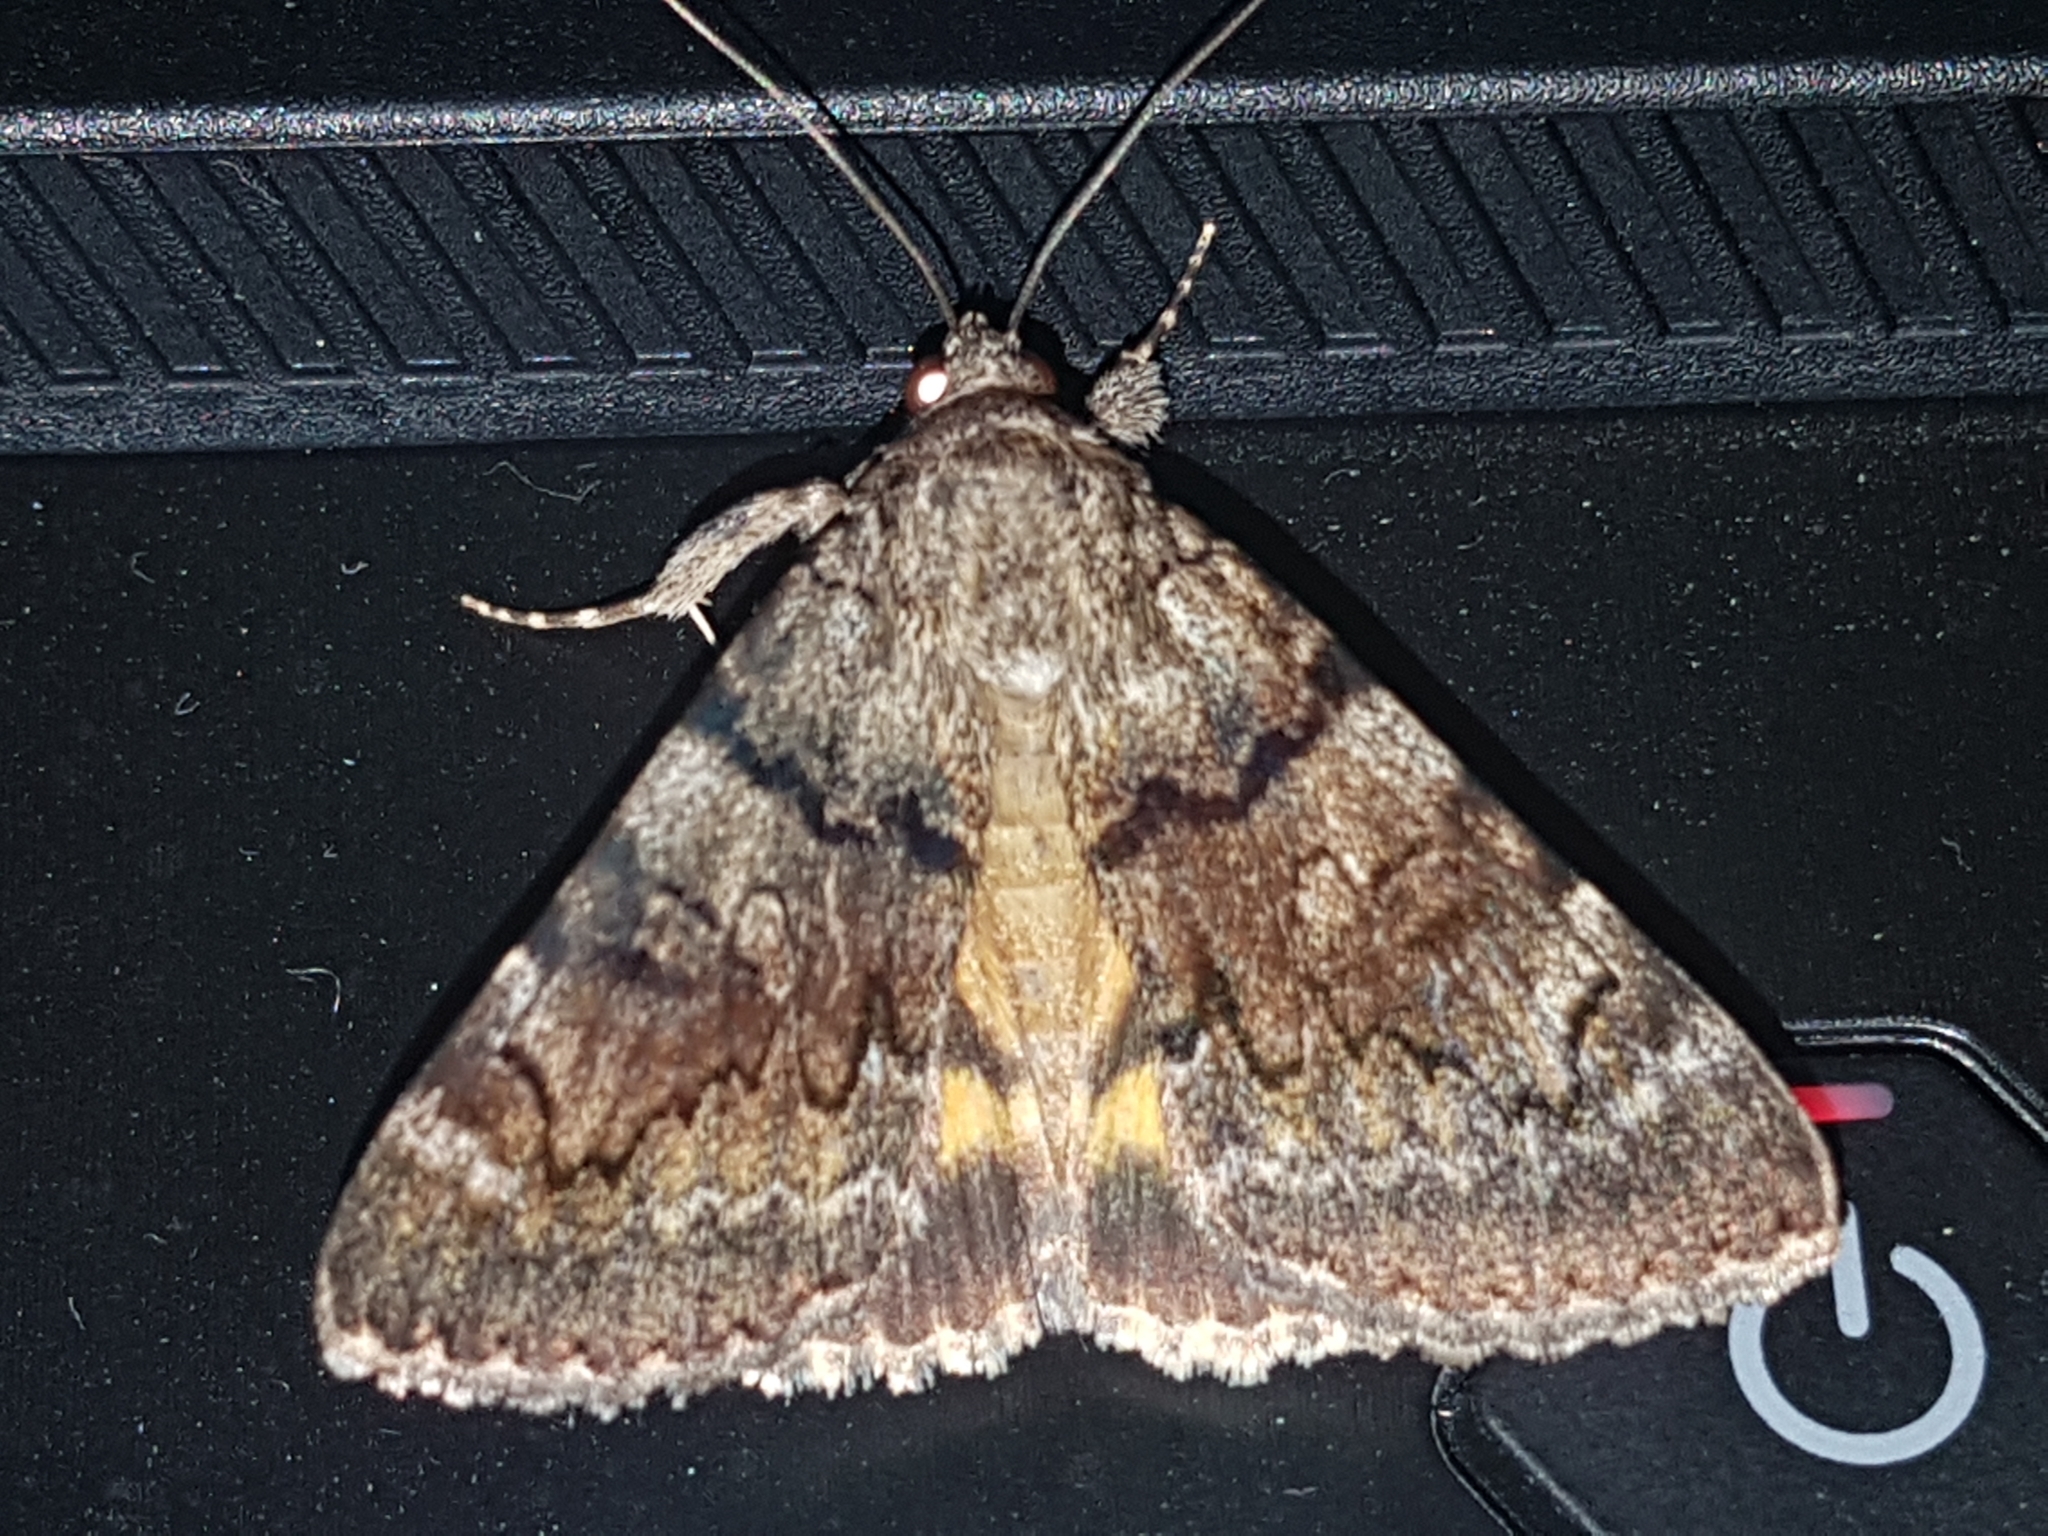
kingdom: Animalia
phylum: Arthropoda
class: Insecta
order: Lepidoptera
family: Erebidae
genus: Catocala
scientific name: Catocala nymphagoga
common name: Oak yellow underwing
